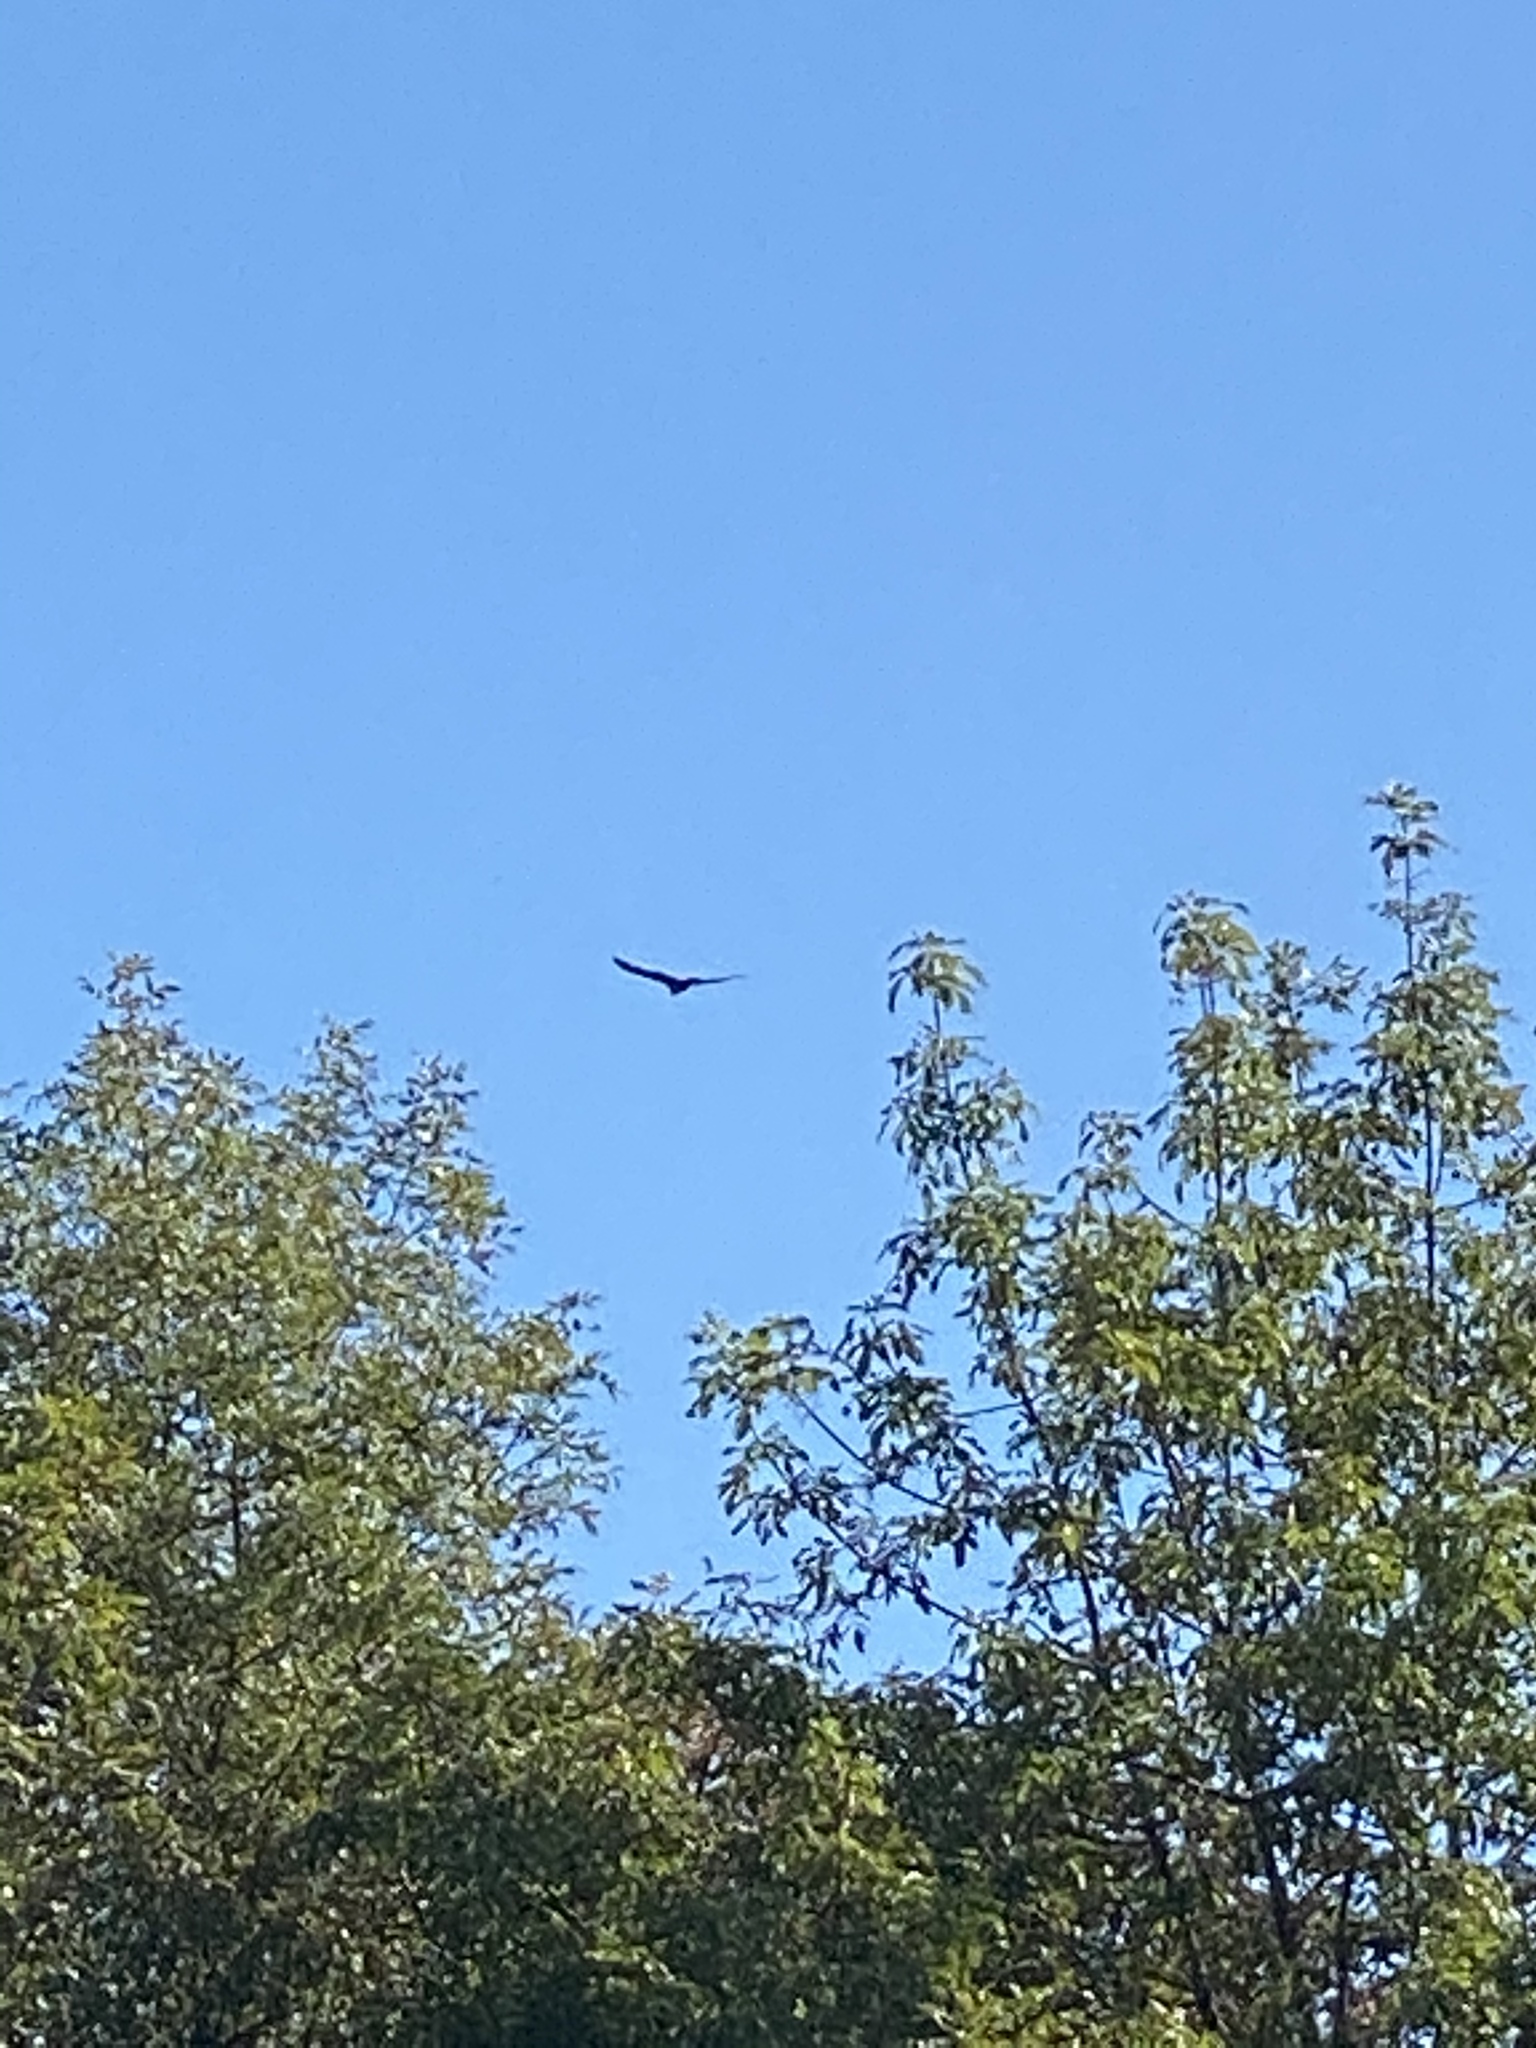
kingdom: Animalia
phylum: Chordata
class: Aves
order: Accipitriformes
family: Cathartidae
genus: Cathartes
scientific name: Cathartes aura
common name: Turkey vulture
